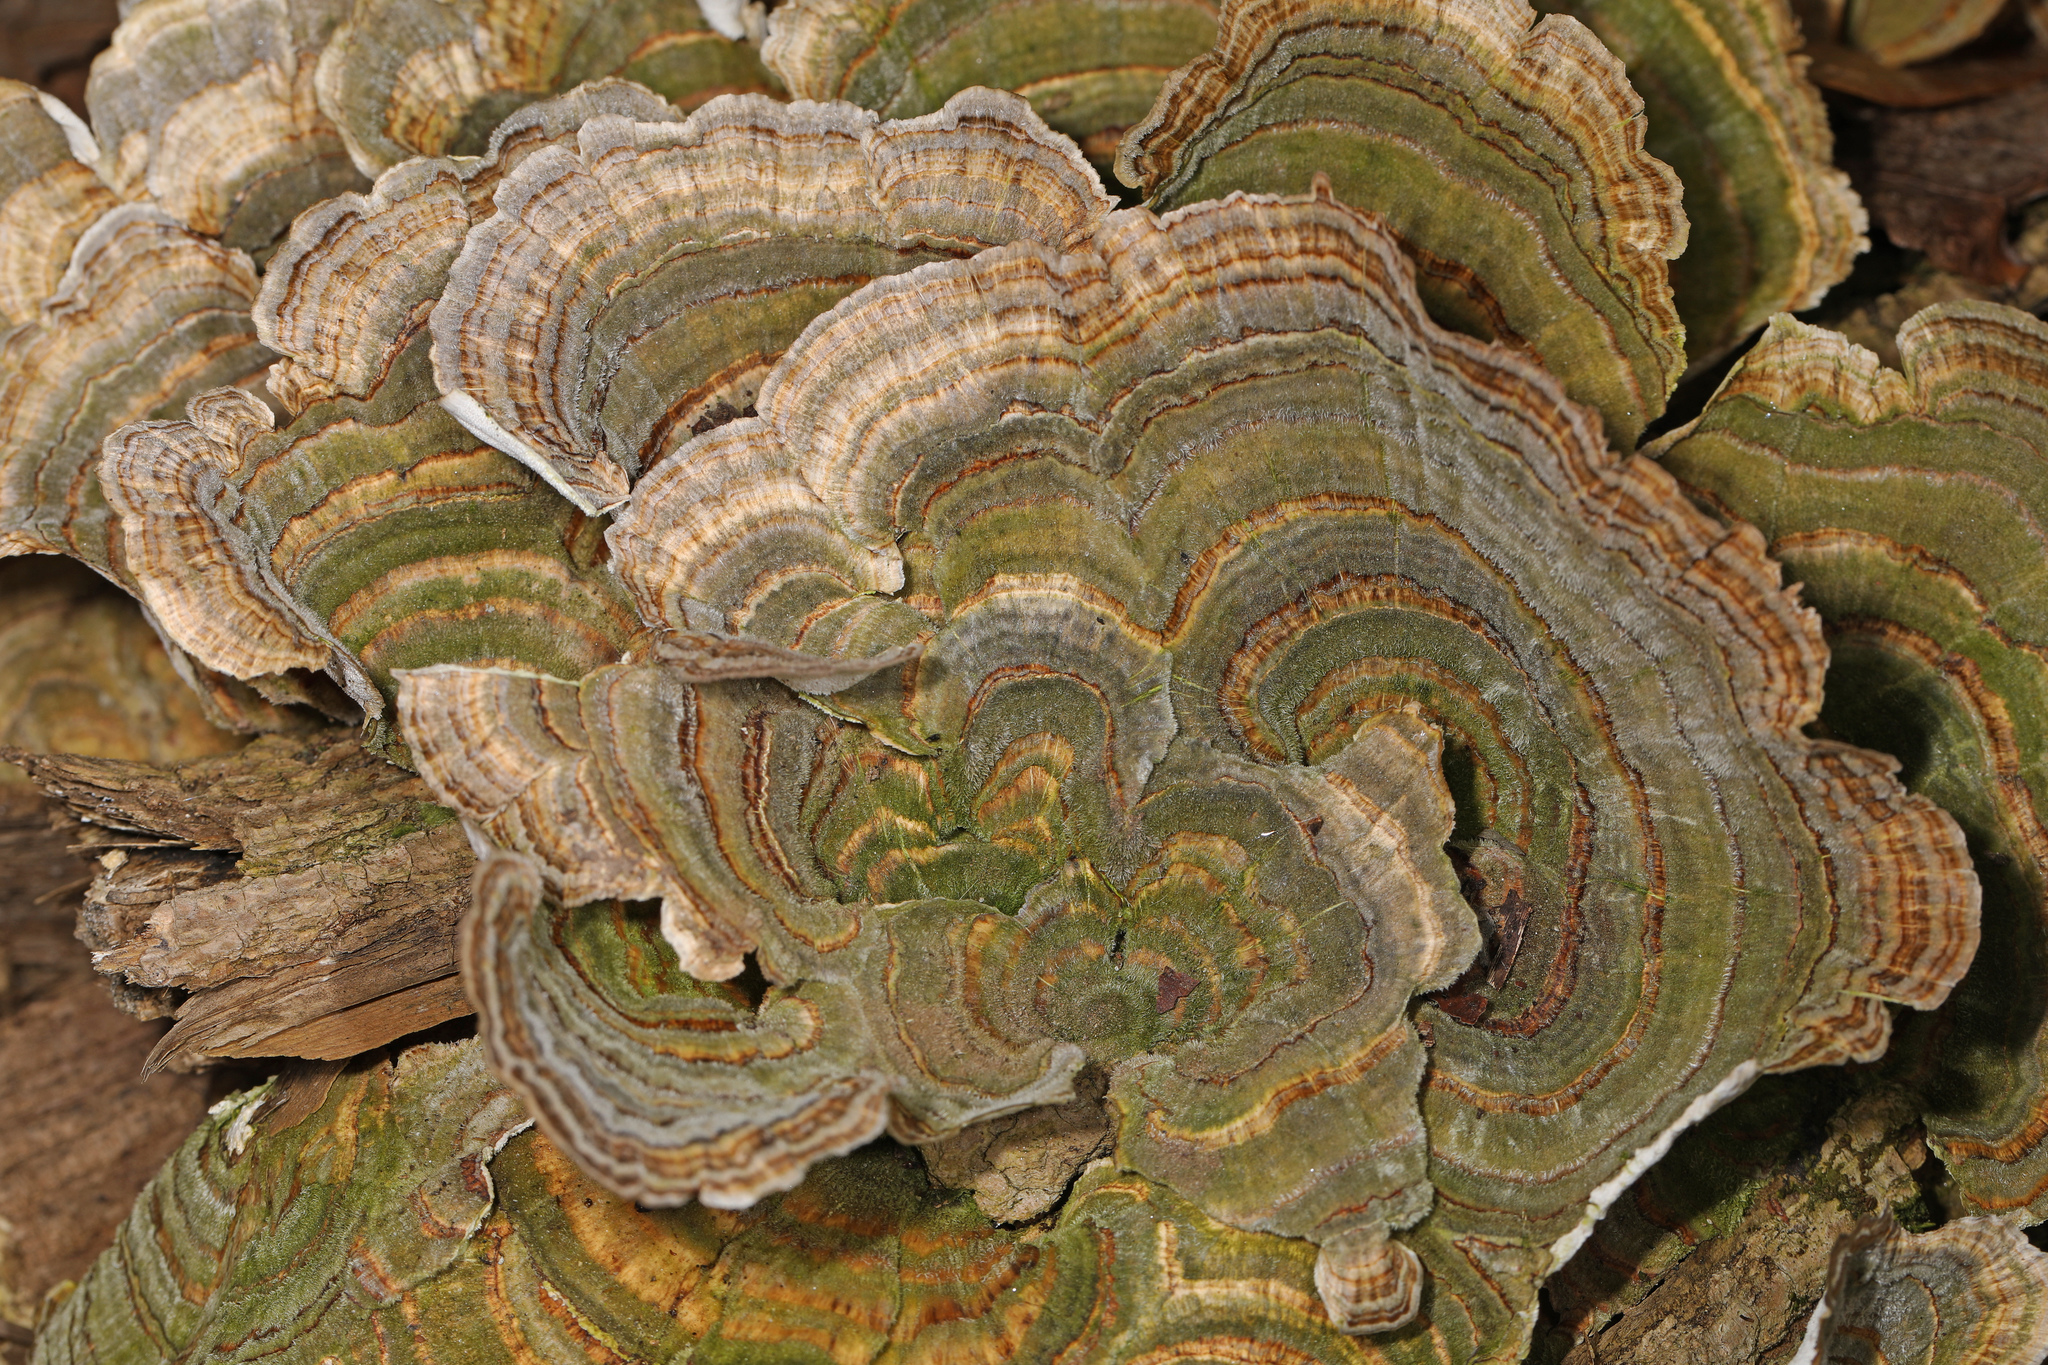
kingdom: Fungi
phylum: Basidiomycota
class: Agaricomycetes
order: Polyporales
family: Polyporaceae
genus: Trametes
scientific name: Trametes versicolor
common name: Turkeytail
